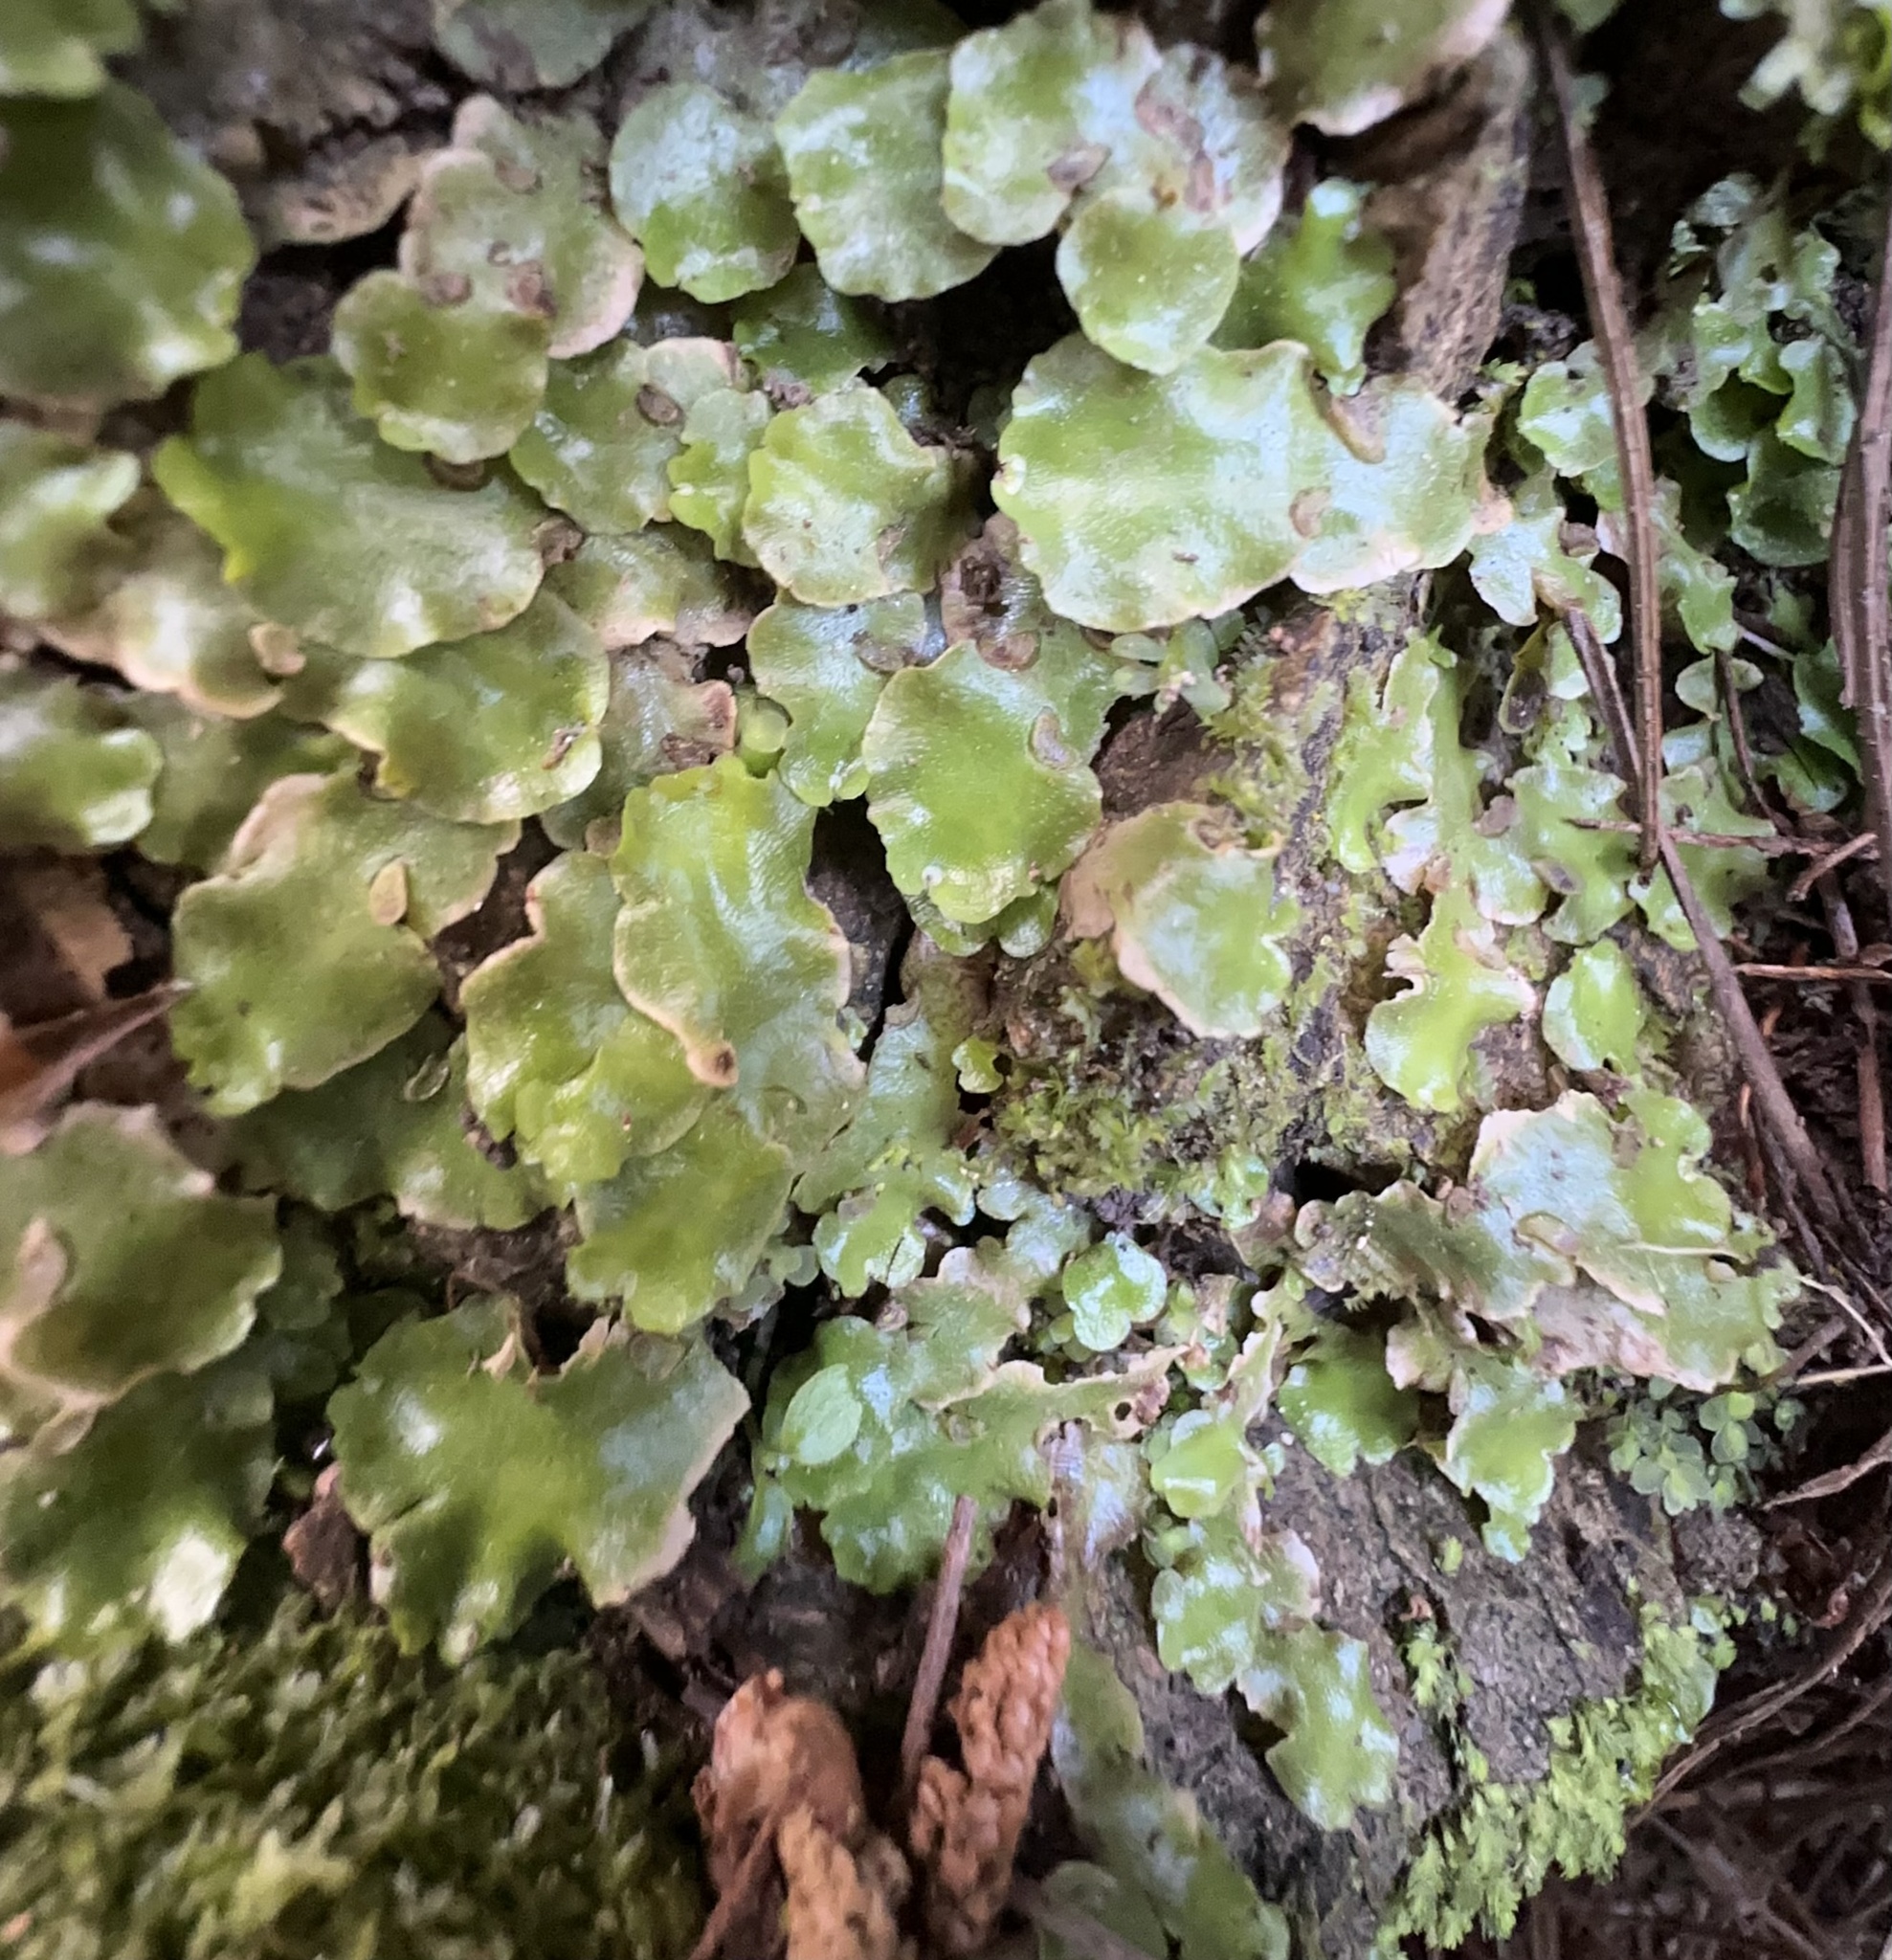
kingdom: Plantae
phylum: Marchantiophyta
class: Marchantiopsida
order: Lunulariales
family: Lunulariaceae
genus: Lunularia
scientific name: Lunularia cruciata
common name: Crescent-cup liverwort
